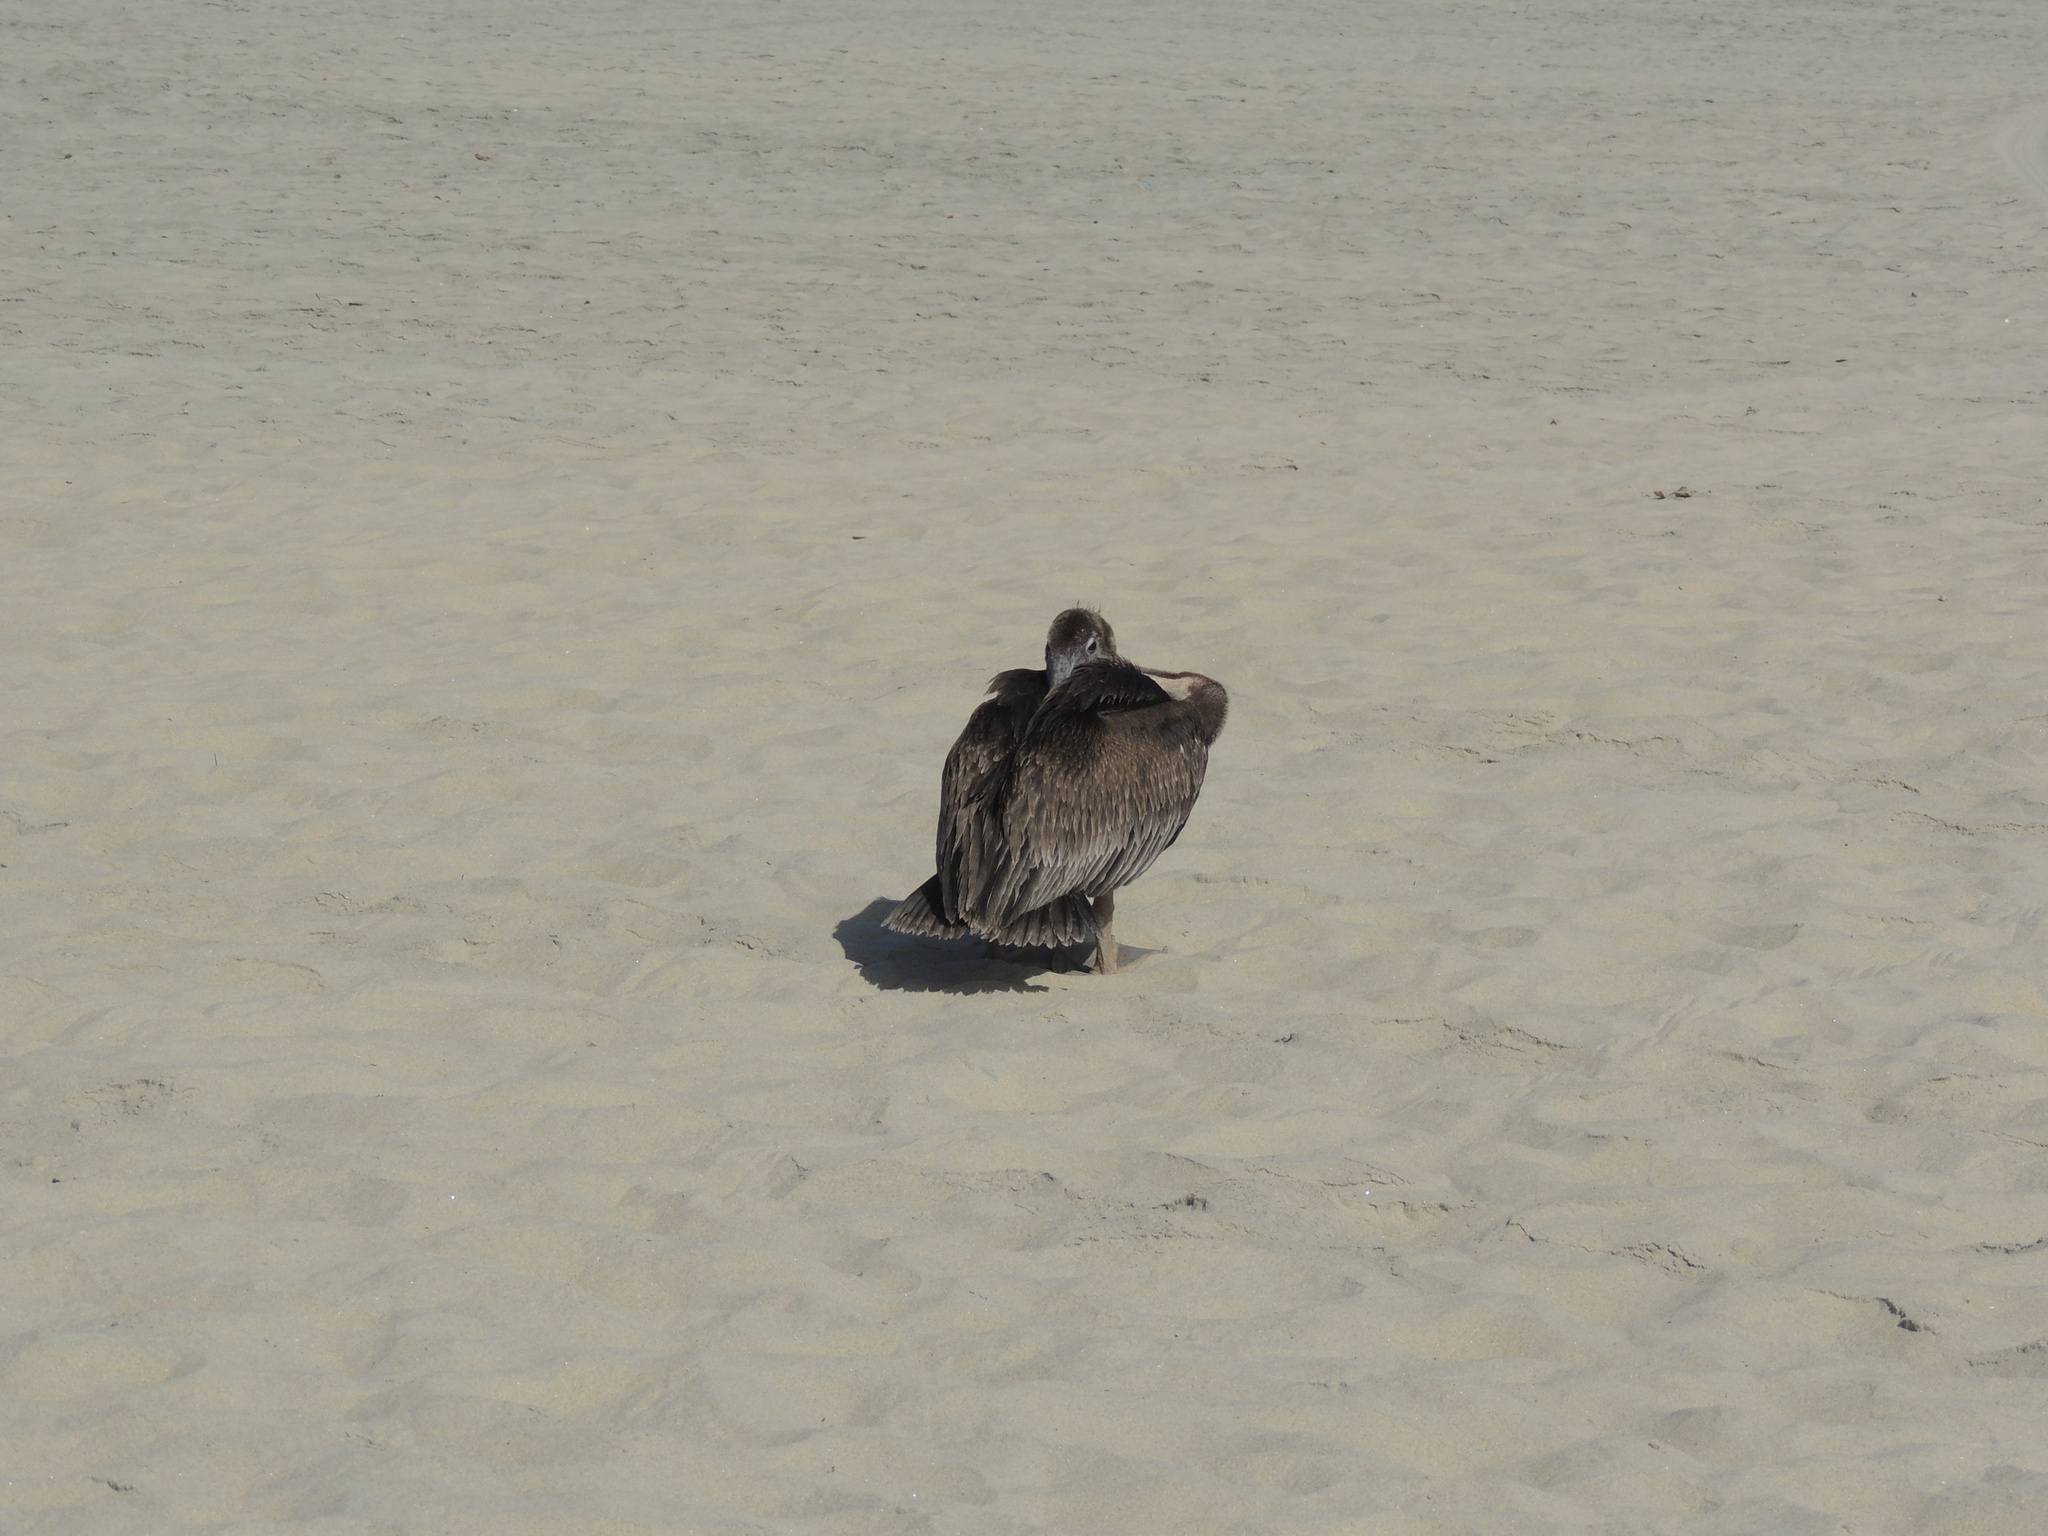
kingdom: Animalia
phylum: Chordata
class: Aves
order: Pelecaniformes
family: Pelecanidae
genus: Pelecanus
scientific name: Pelecanus occidentalis
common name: Brown pelican
